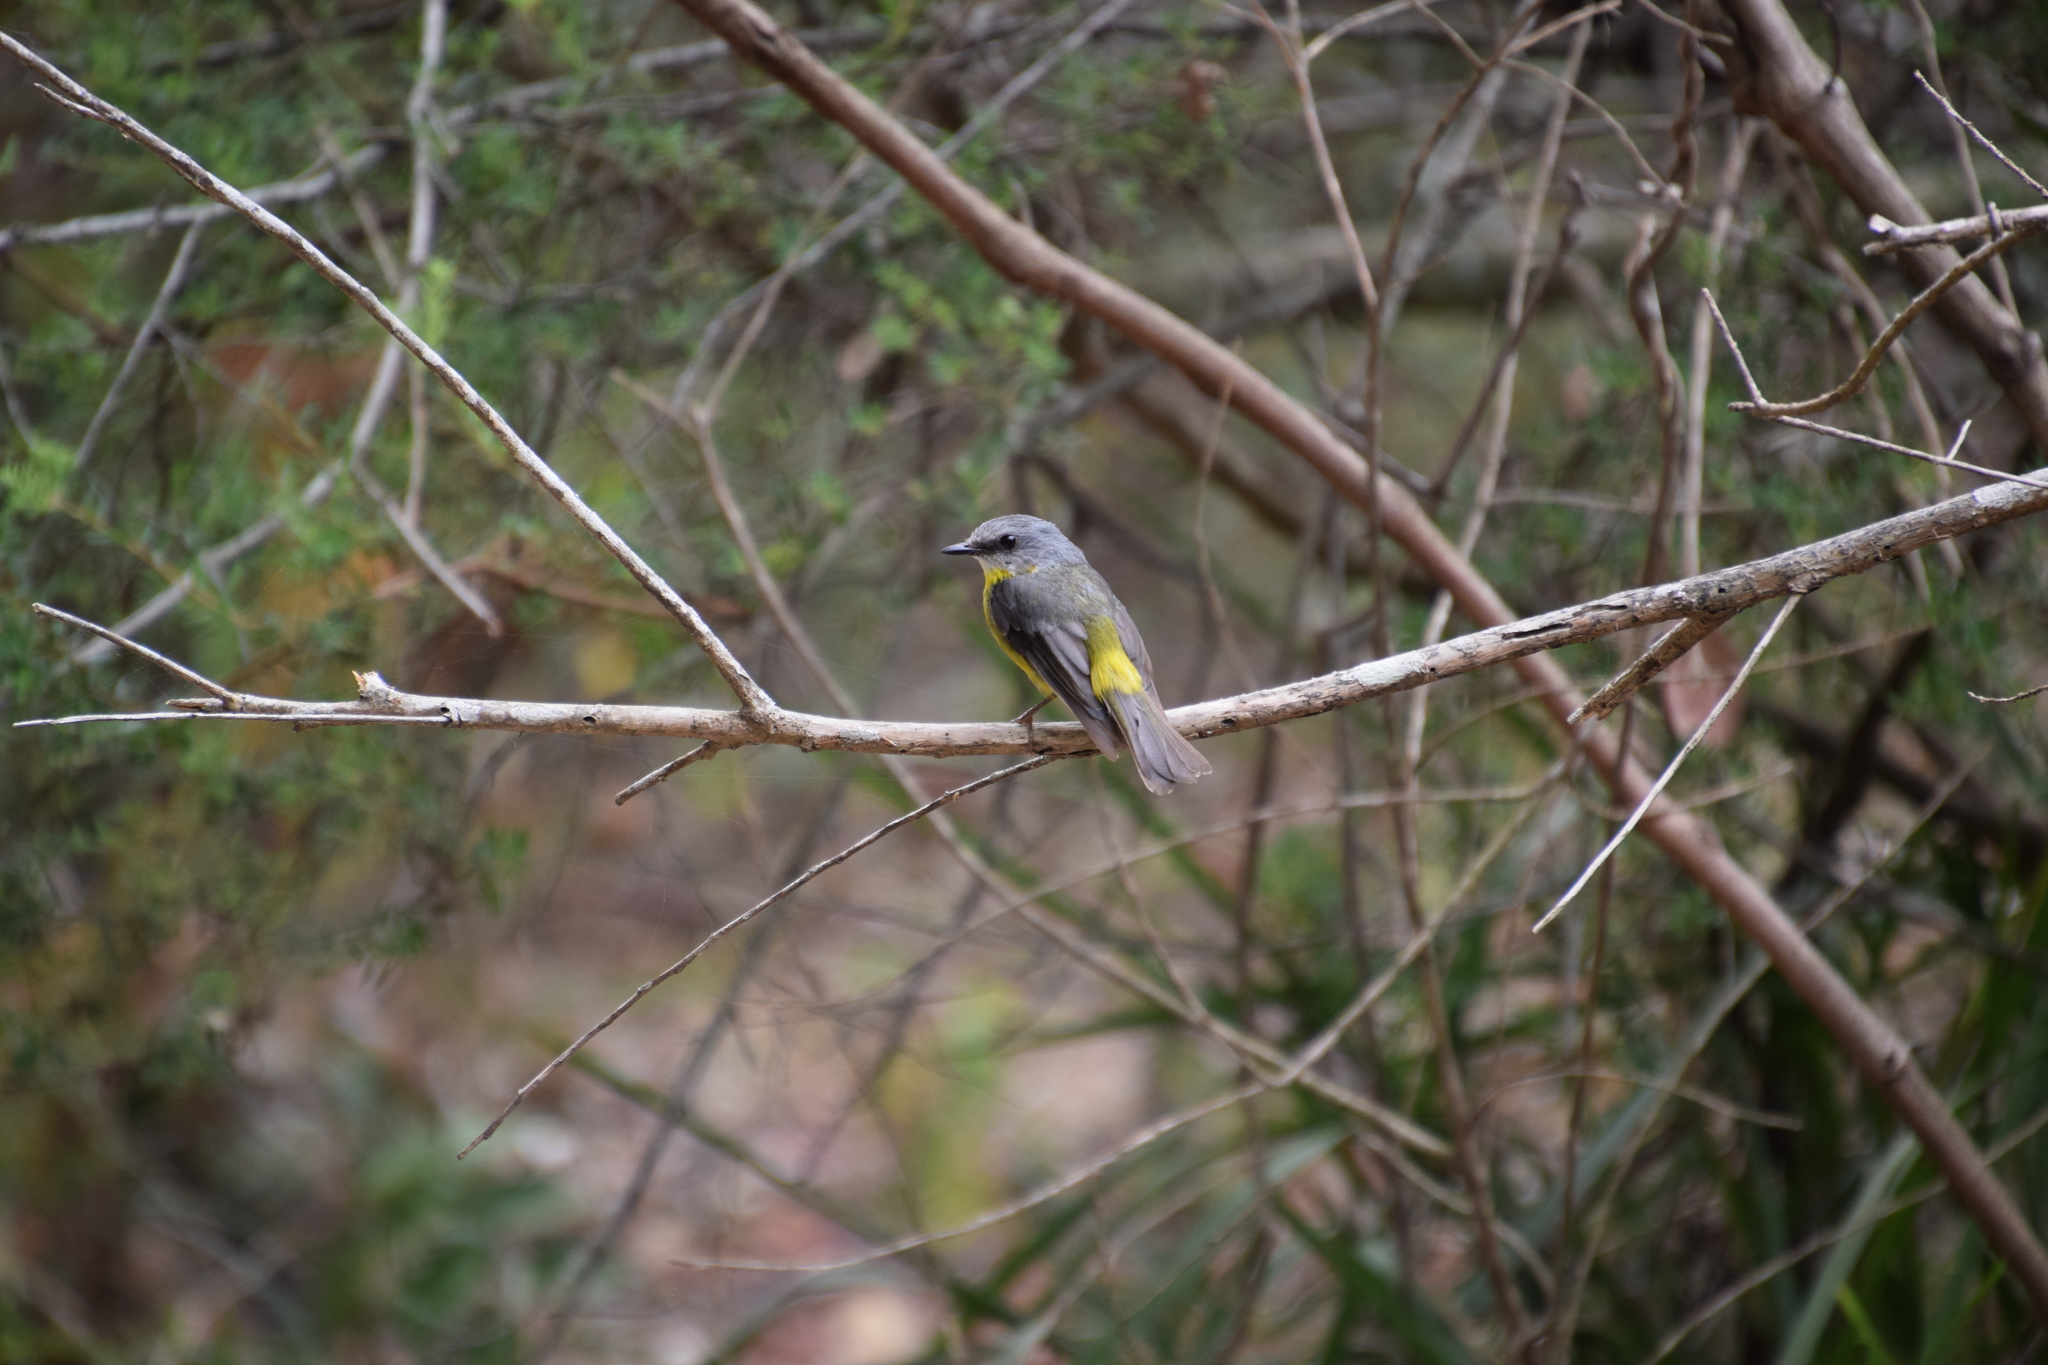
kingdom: Animalia
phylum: Chordata
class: Aves
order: Passeriformes
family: Petroicidae
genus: Eopsaltria
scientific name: Eopsaltria australis
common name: Eastern yellow robin
